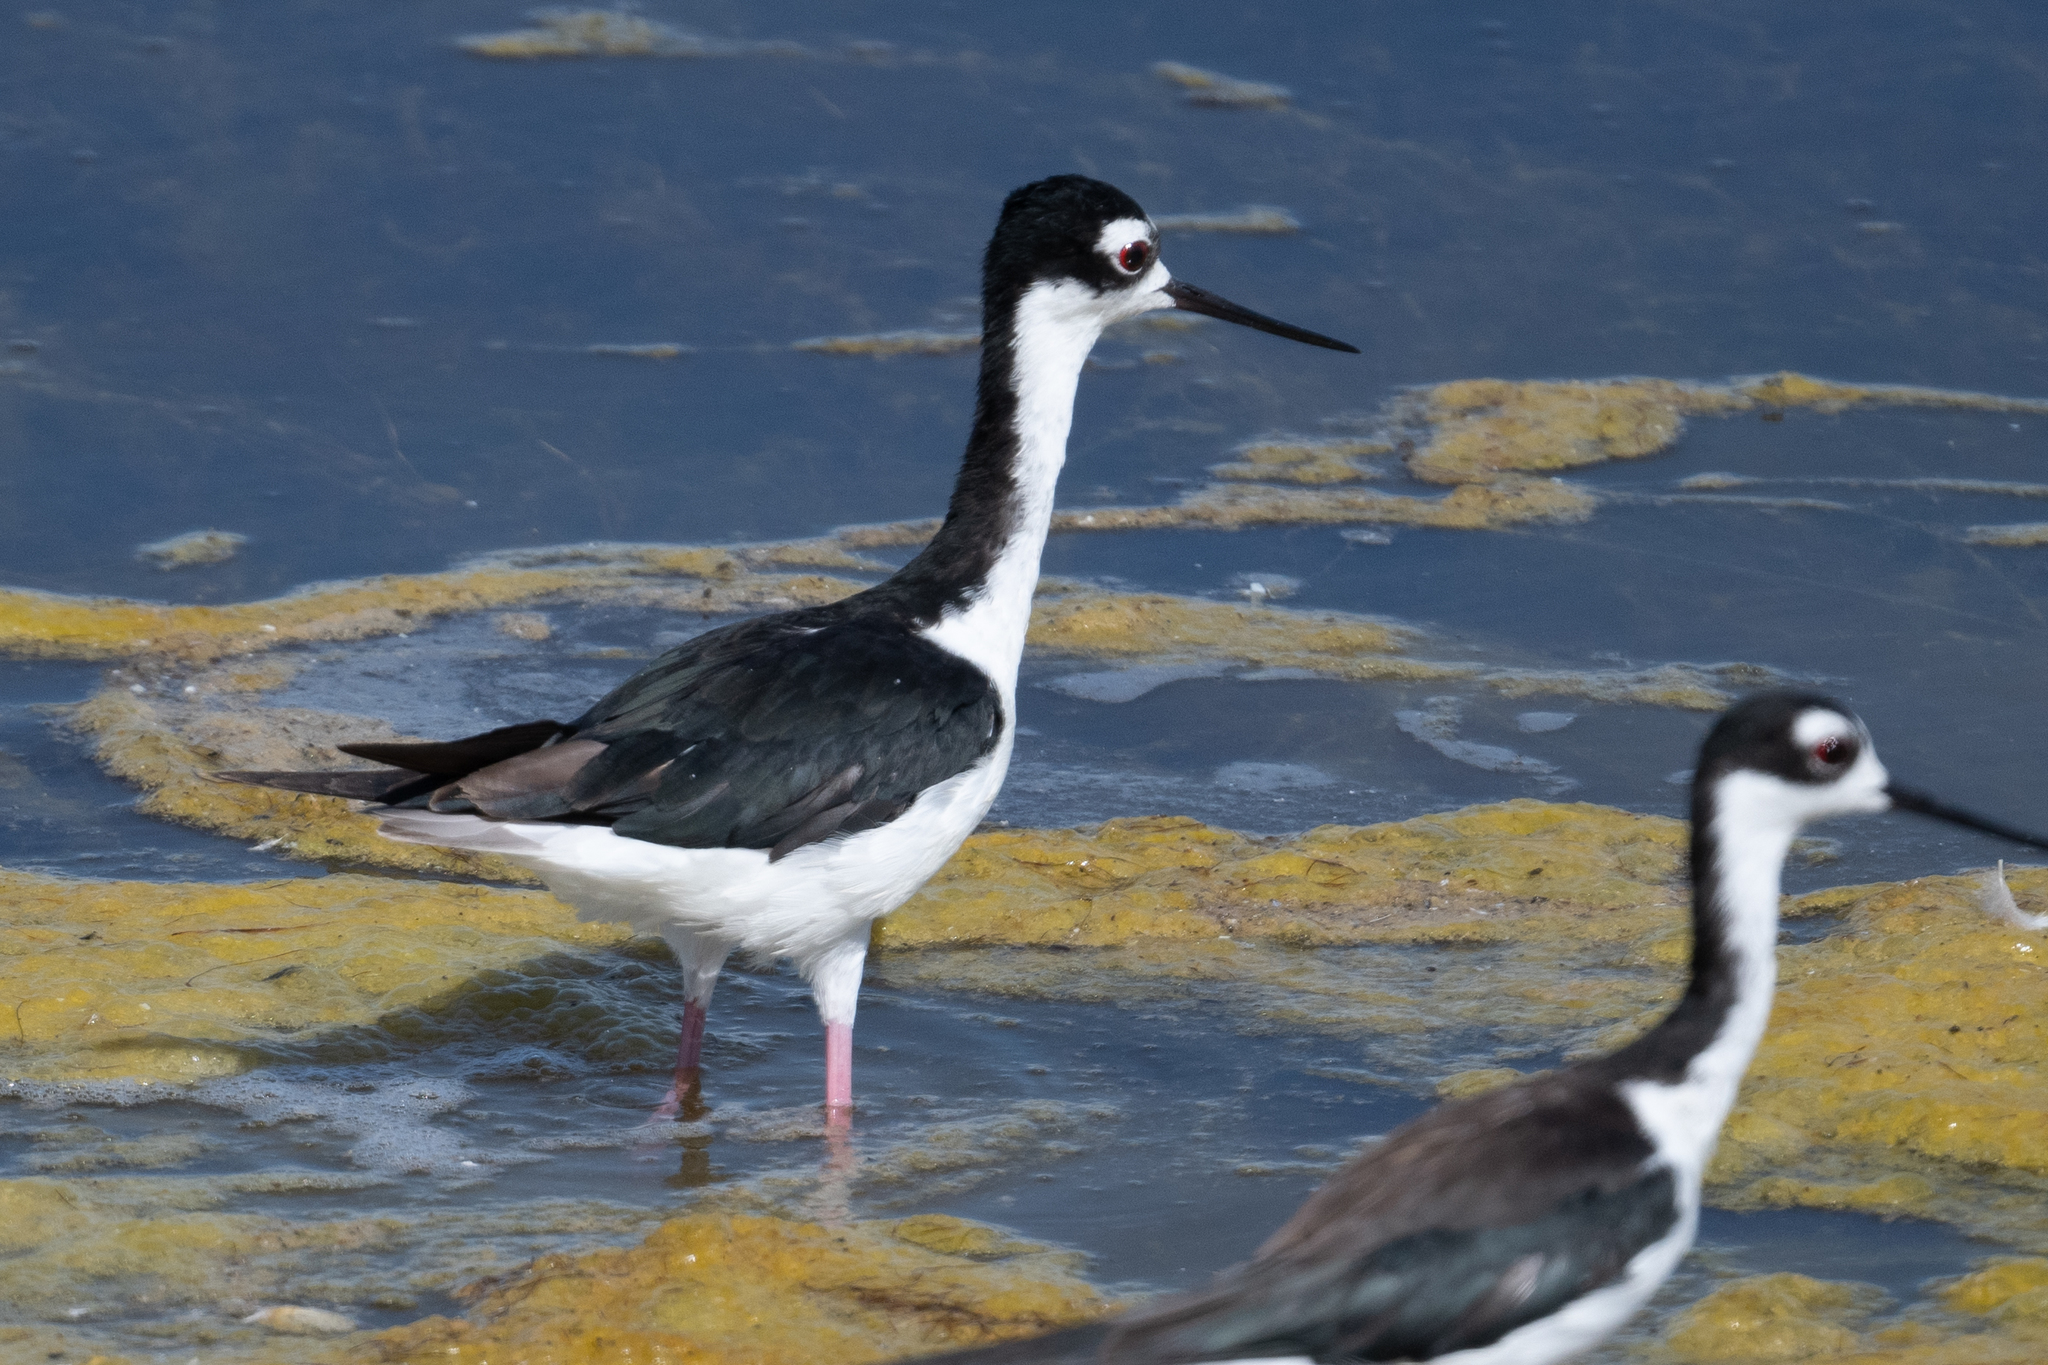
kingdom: Animalia
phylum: Chordata
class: Aves
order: Charadriiformes
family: Recurvirostridae
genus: Himantopus
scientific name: Himantopus mexicanus
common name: Black-necked stilt
